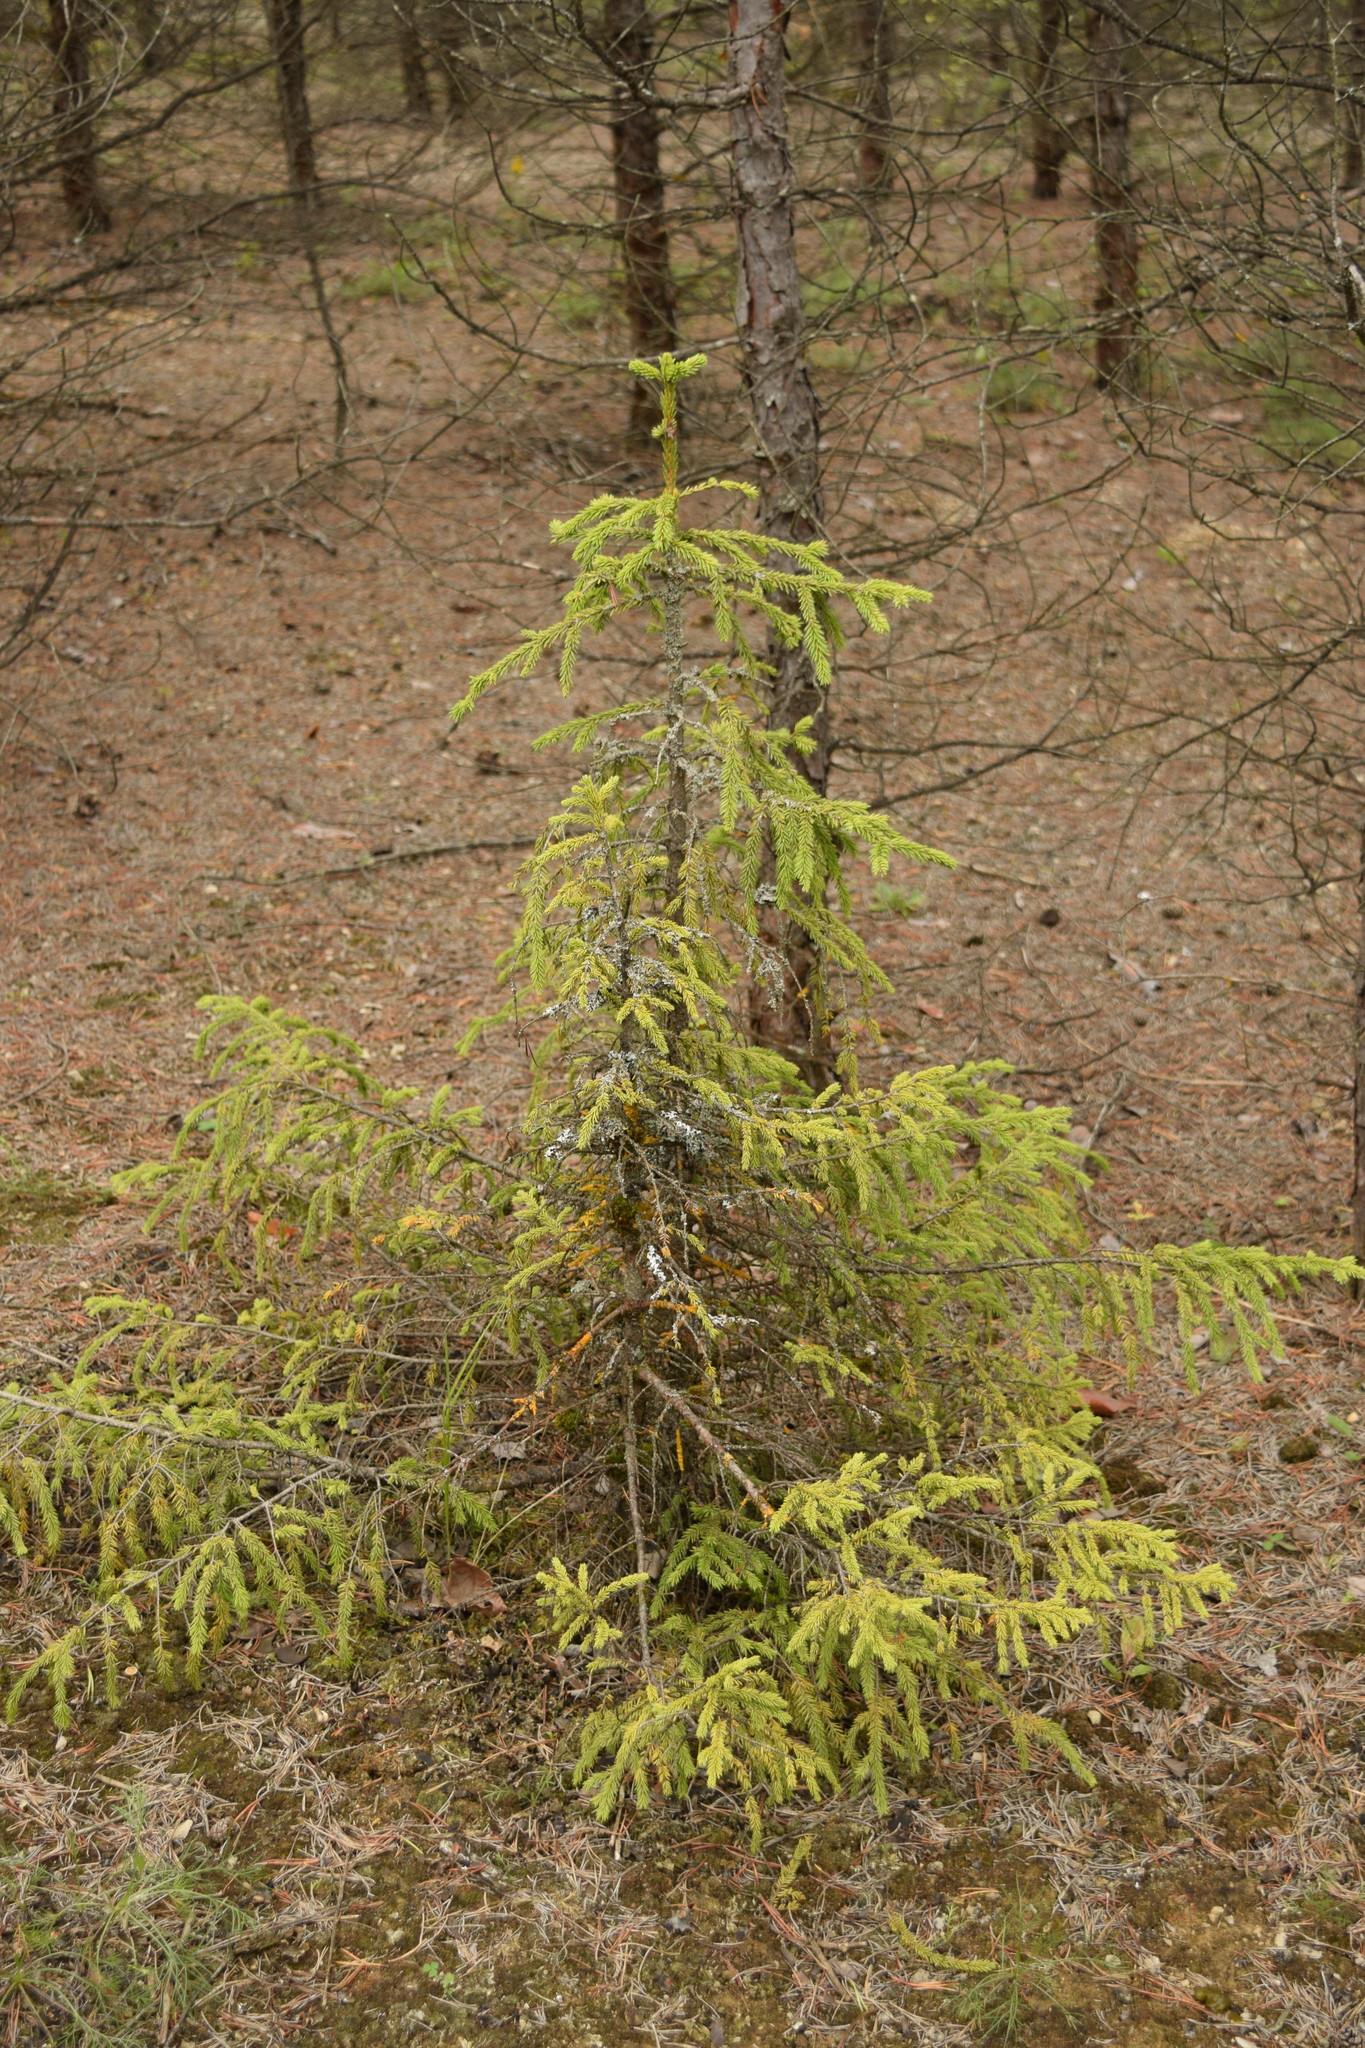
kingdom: Plantae
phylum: Tracheophyta
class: Pinopsida
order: Pinales
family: Pinaceae
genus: Picea
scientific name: Picea abies
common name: Norway spruce
